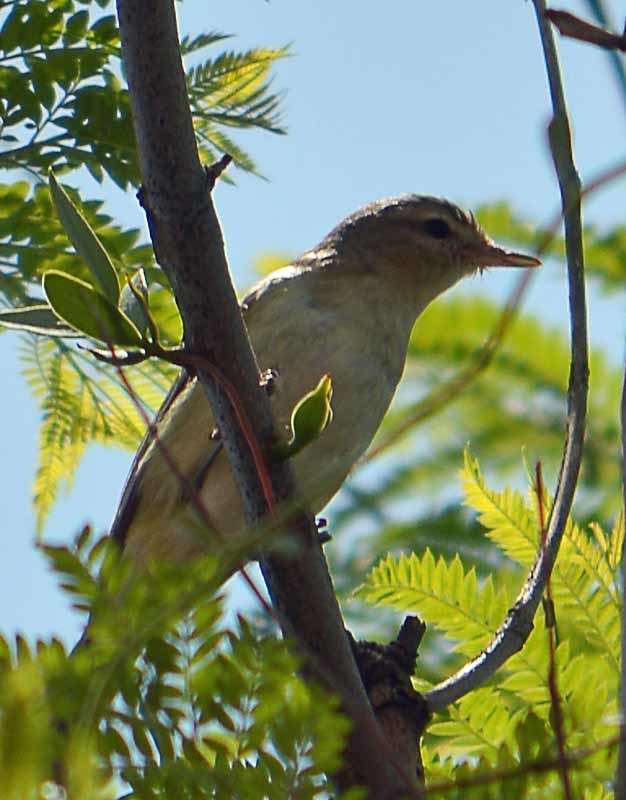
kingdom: Animalia
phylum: Chordata
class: Aves
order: Passeriformes
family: Vireonidae
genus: Vireo
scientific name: Vireo gilvus
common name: Warbling vireo
